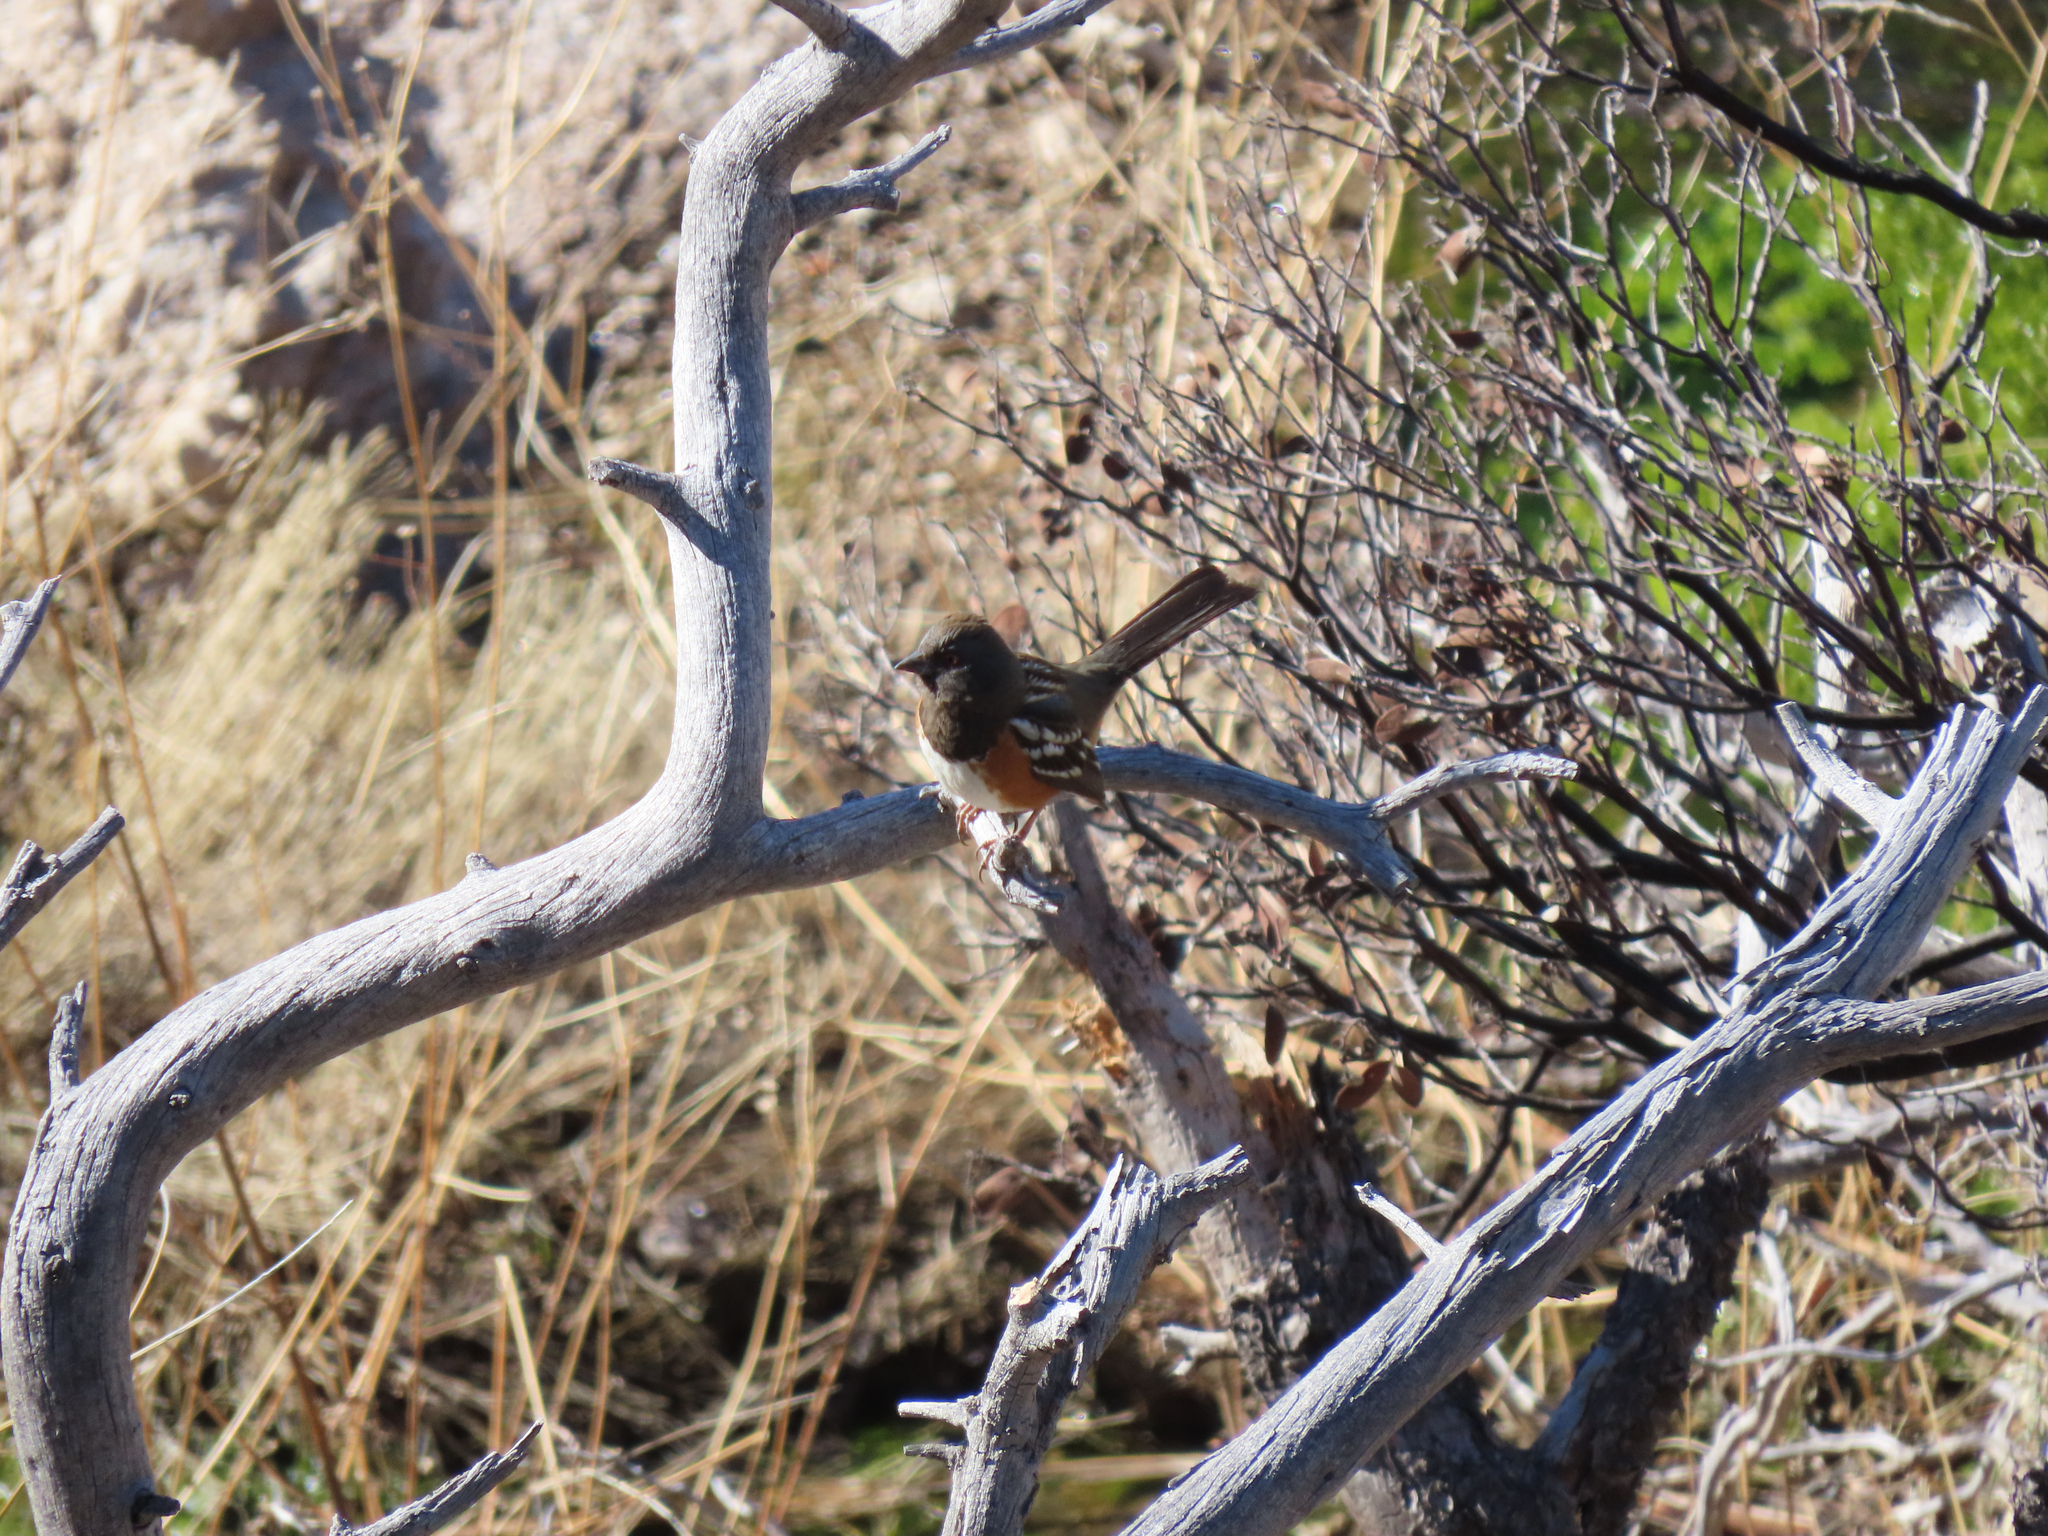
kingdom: Animalia
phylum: Chordata
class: Aves
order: Passeriformes
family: Passerellidae
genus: Pipilo
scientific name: Pipilo maculatus
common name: Spotted towhee
